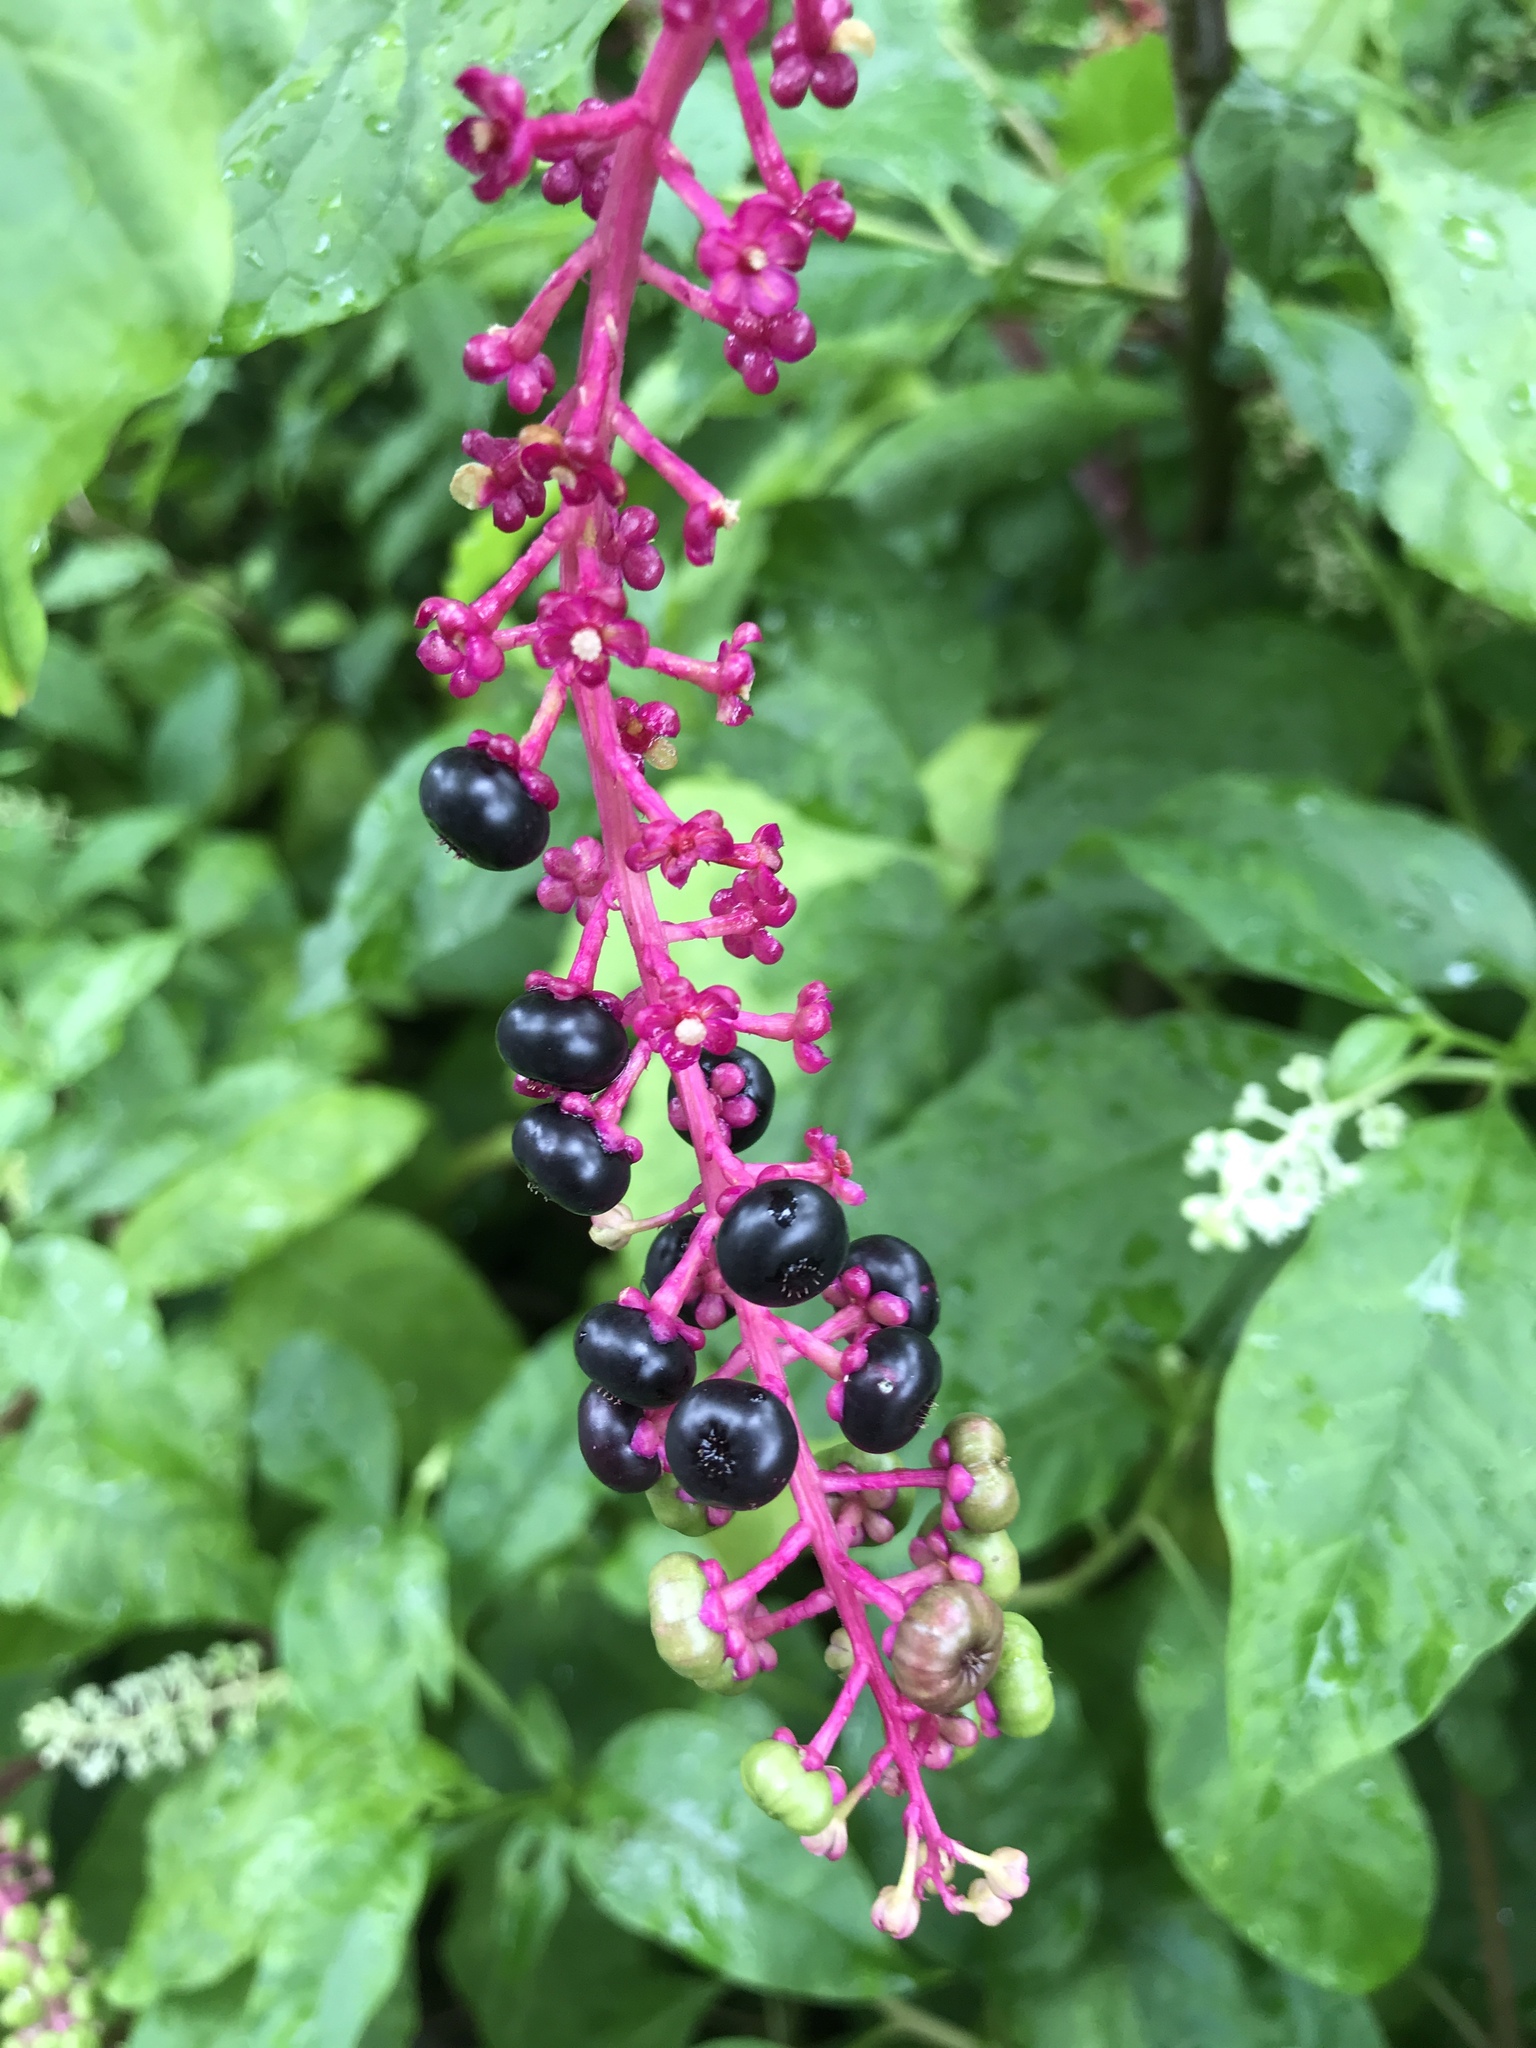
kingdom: Plantae
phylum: Tracheophyta
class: Magnoliopsida
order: Caryophyllales
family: Phytolaccaceae
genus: Phytolacca
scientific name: Phytolacca americana
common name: American pokeweed
